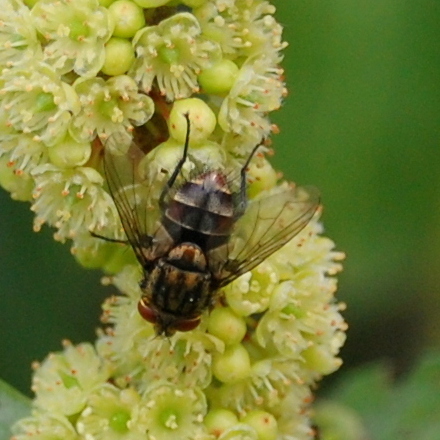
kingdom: Animalia
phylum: Arthropoda
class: Insecta
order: Diptera
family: Muscidae
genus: Stomoxys
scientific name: Stomoxys calcitrans
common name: Stable fly
